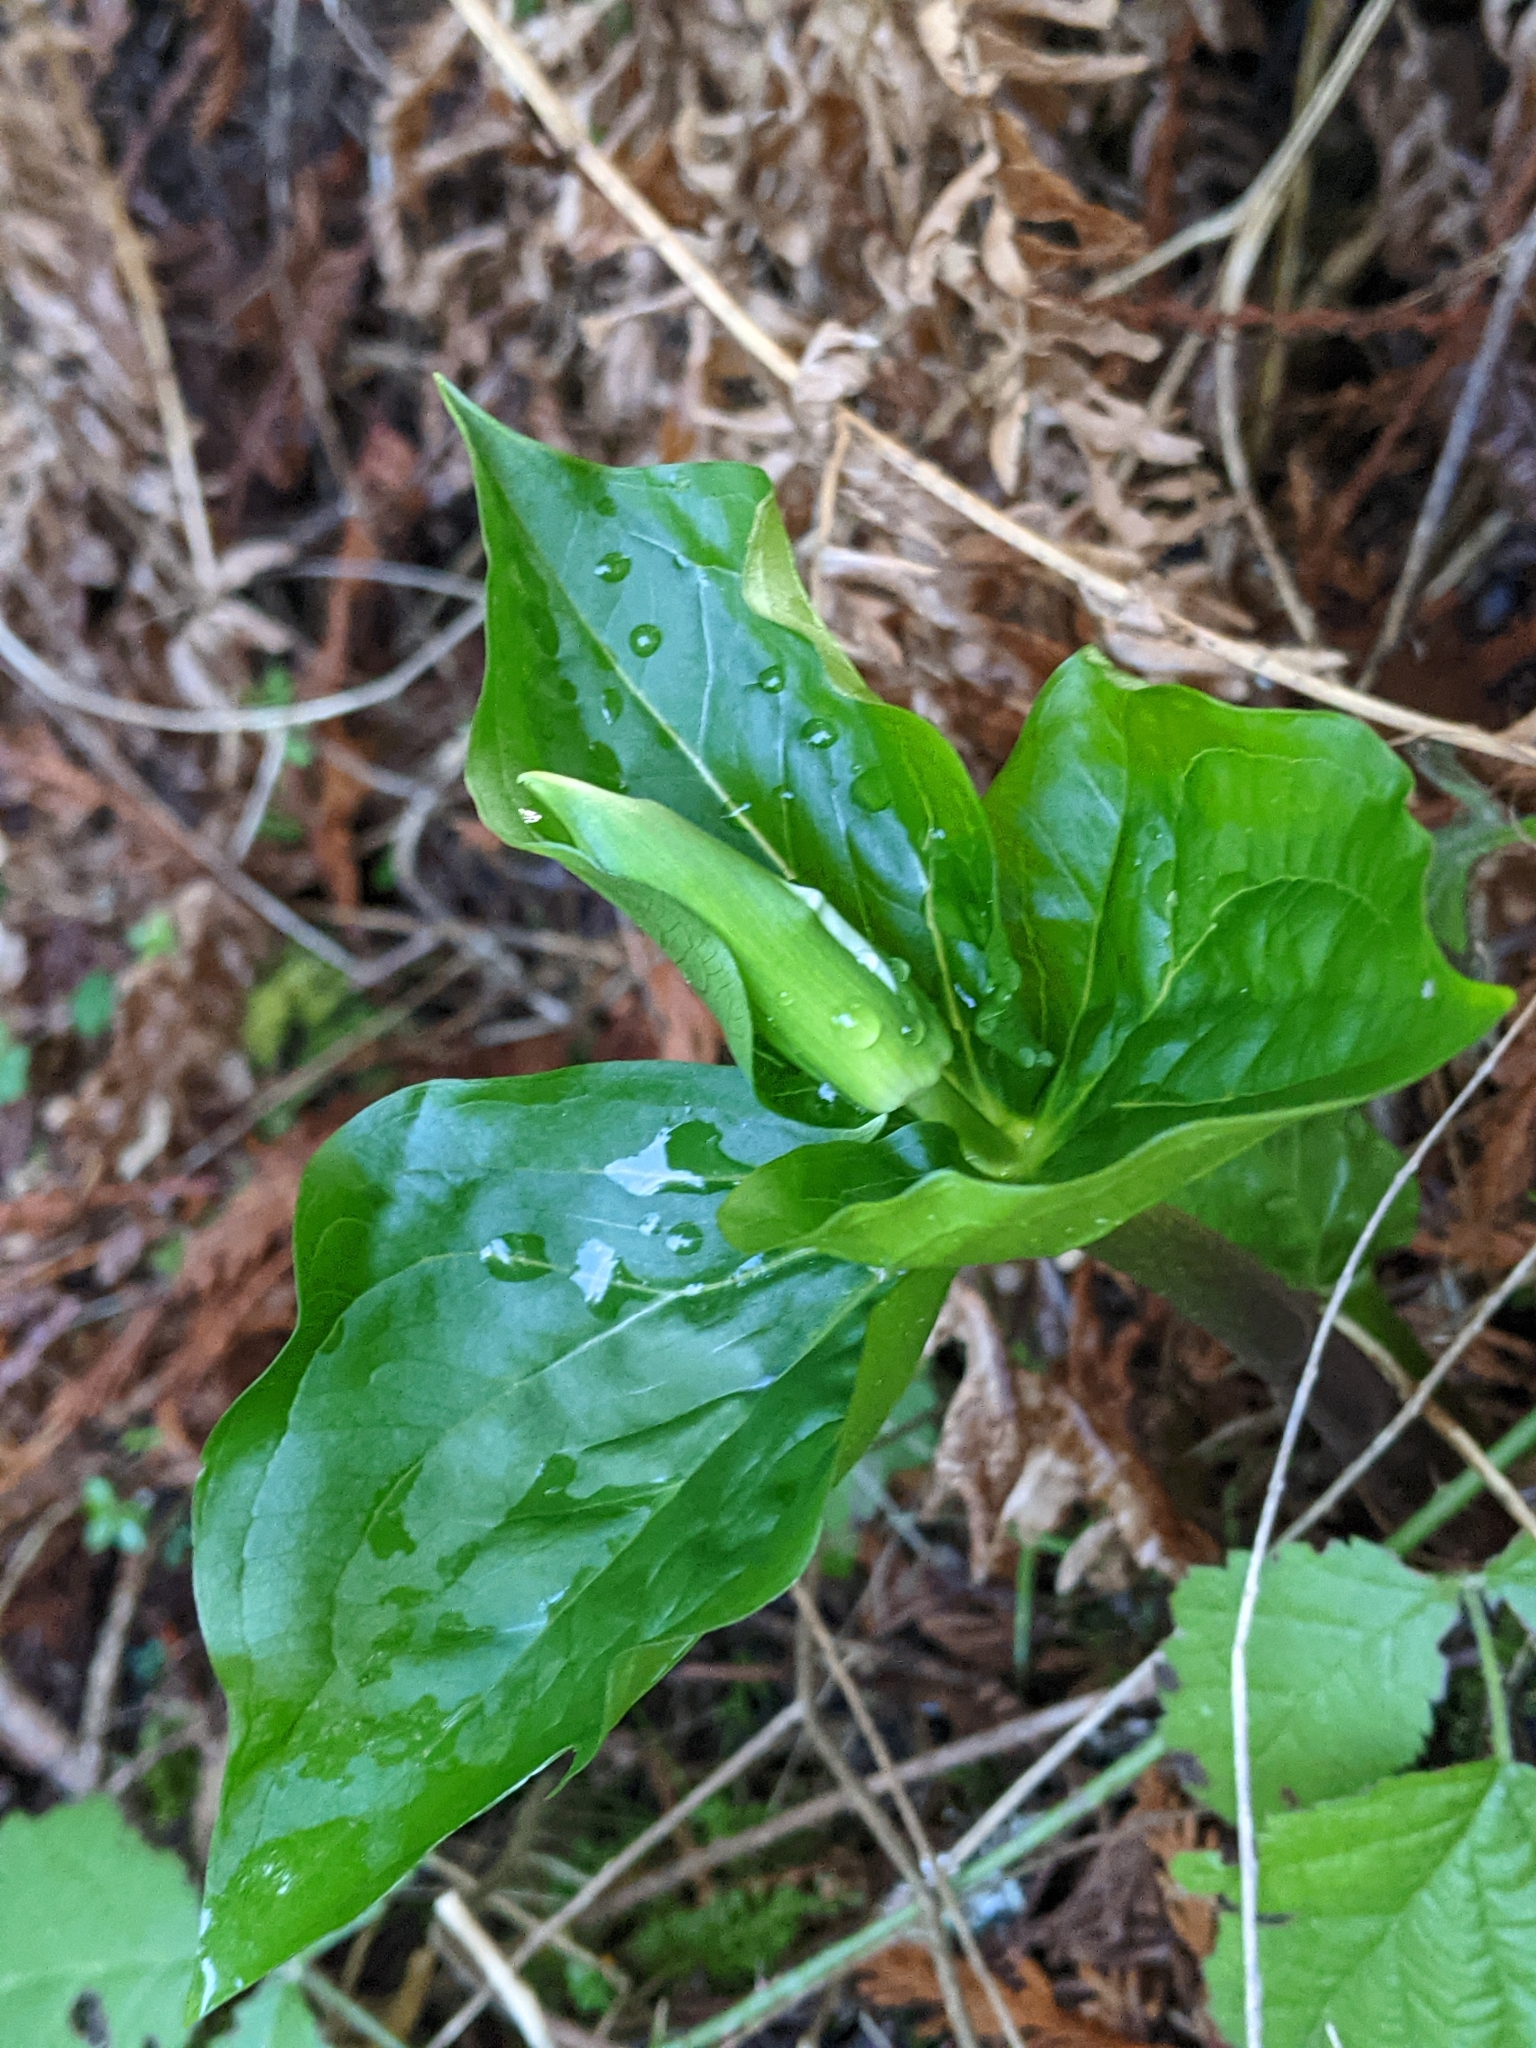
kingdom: Plantae
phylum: Tracheophyta
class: Liliopsida
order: Liliales
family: Melanthiaceae
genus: Trillium
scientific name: Trillium ovatum
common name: Pacific trillium
